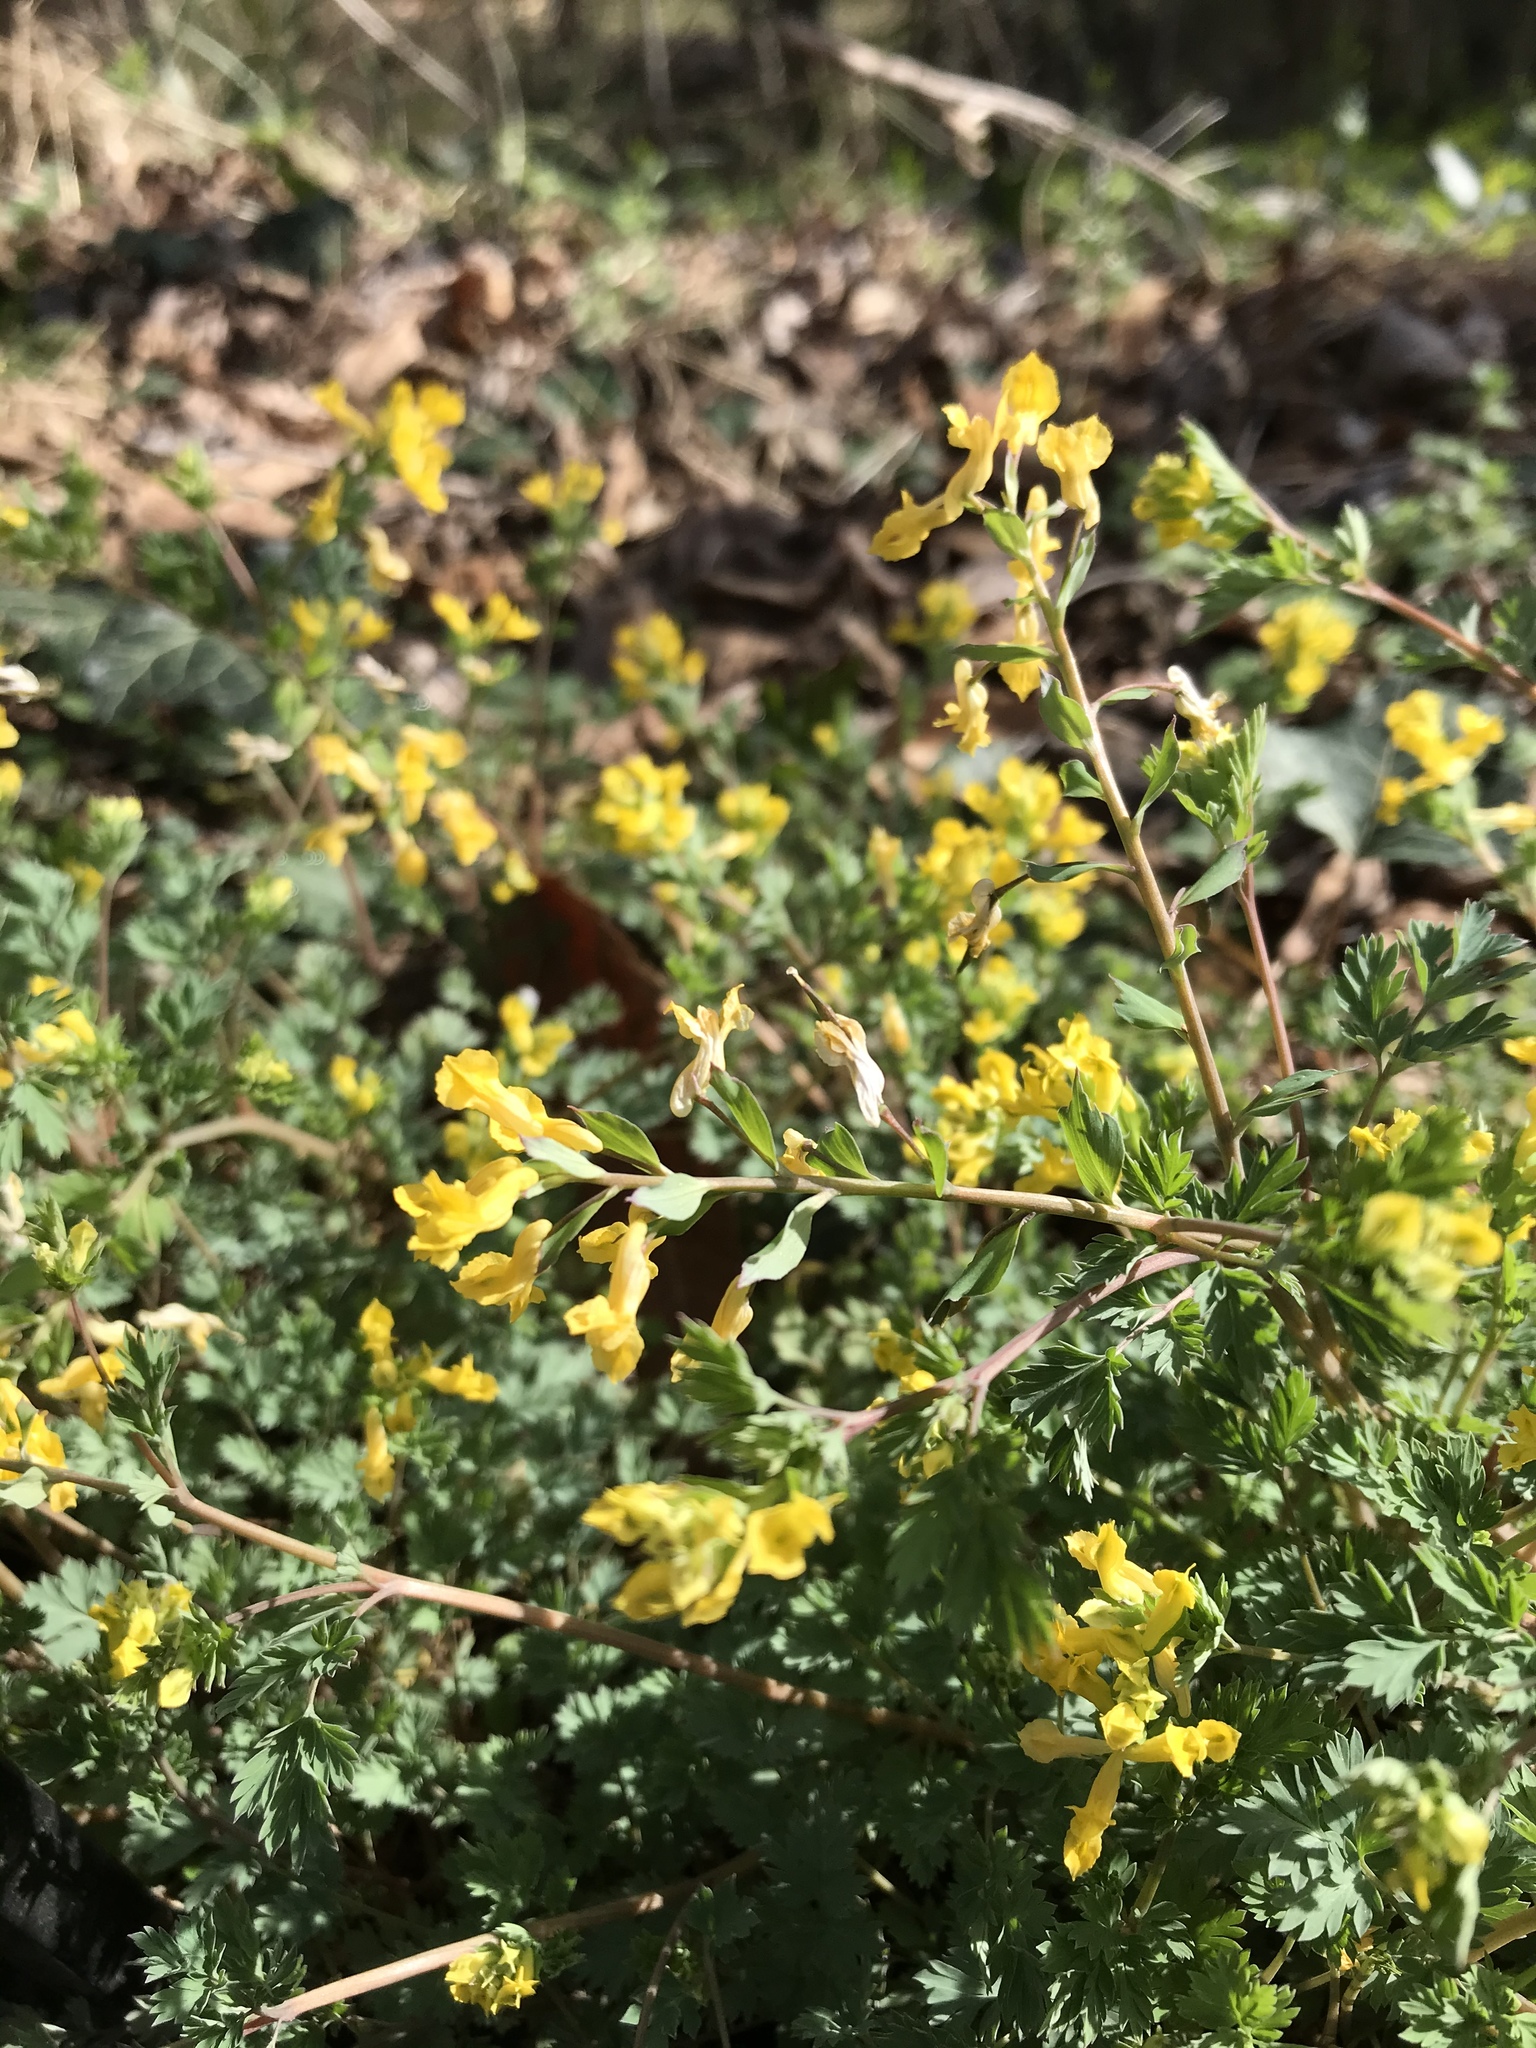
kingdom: Plantae
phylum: Tracheophyta
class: Magnoliopsida
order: Ranunculales
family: Papaveraceae
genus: Corydalis
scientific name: Corydalis flavula
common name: Yellow corydalis
